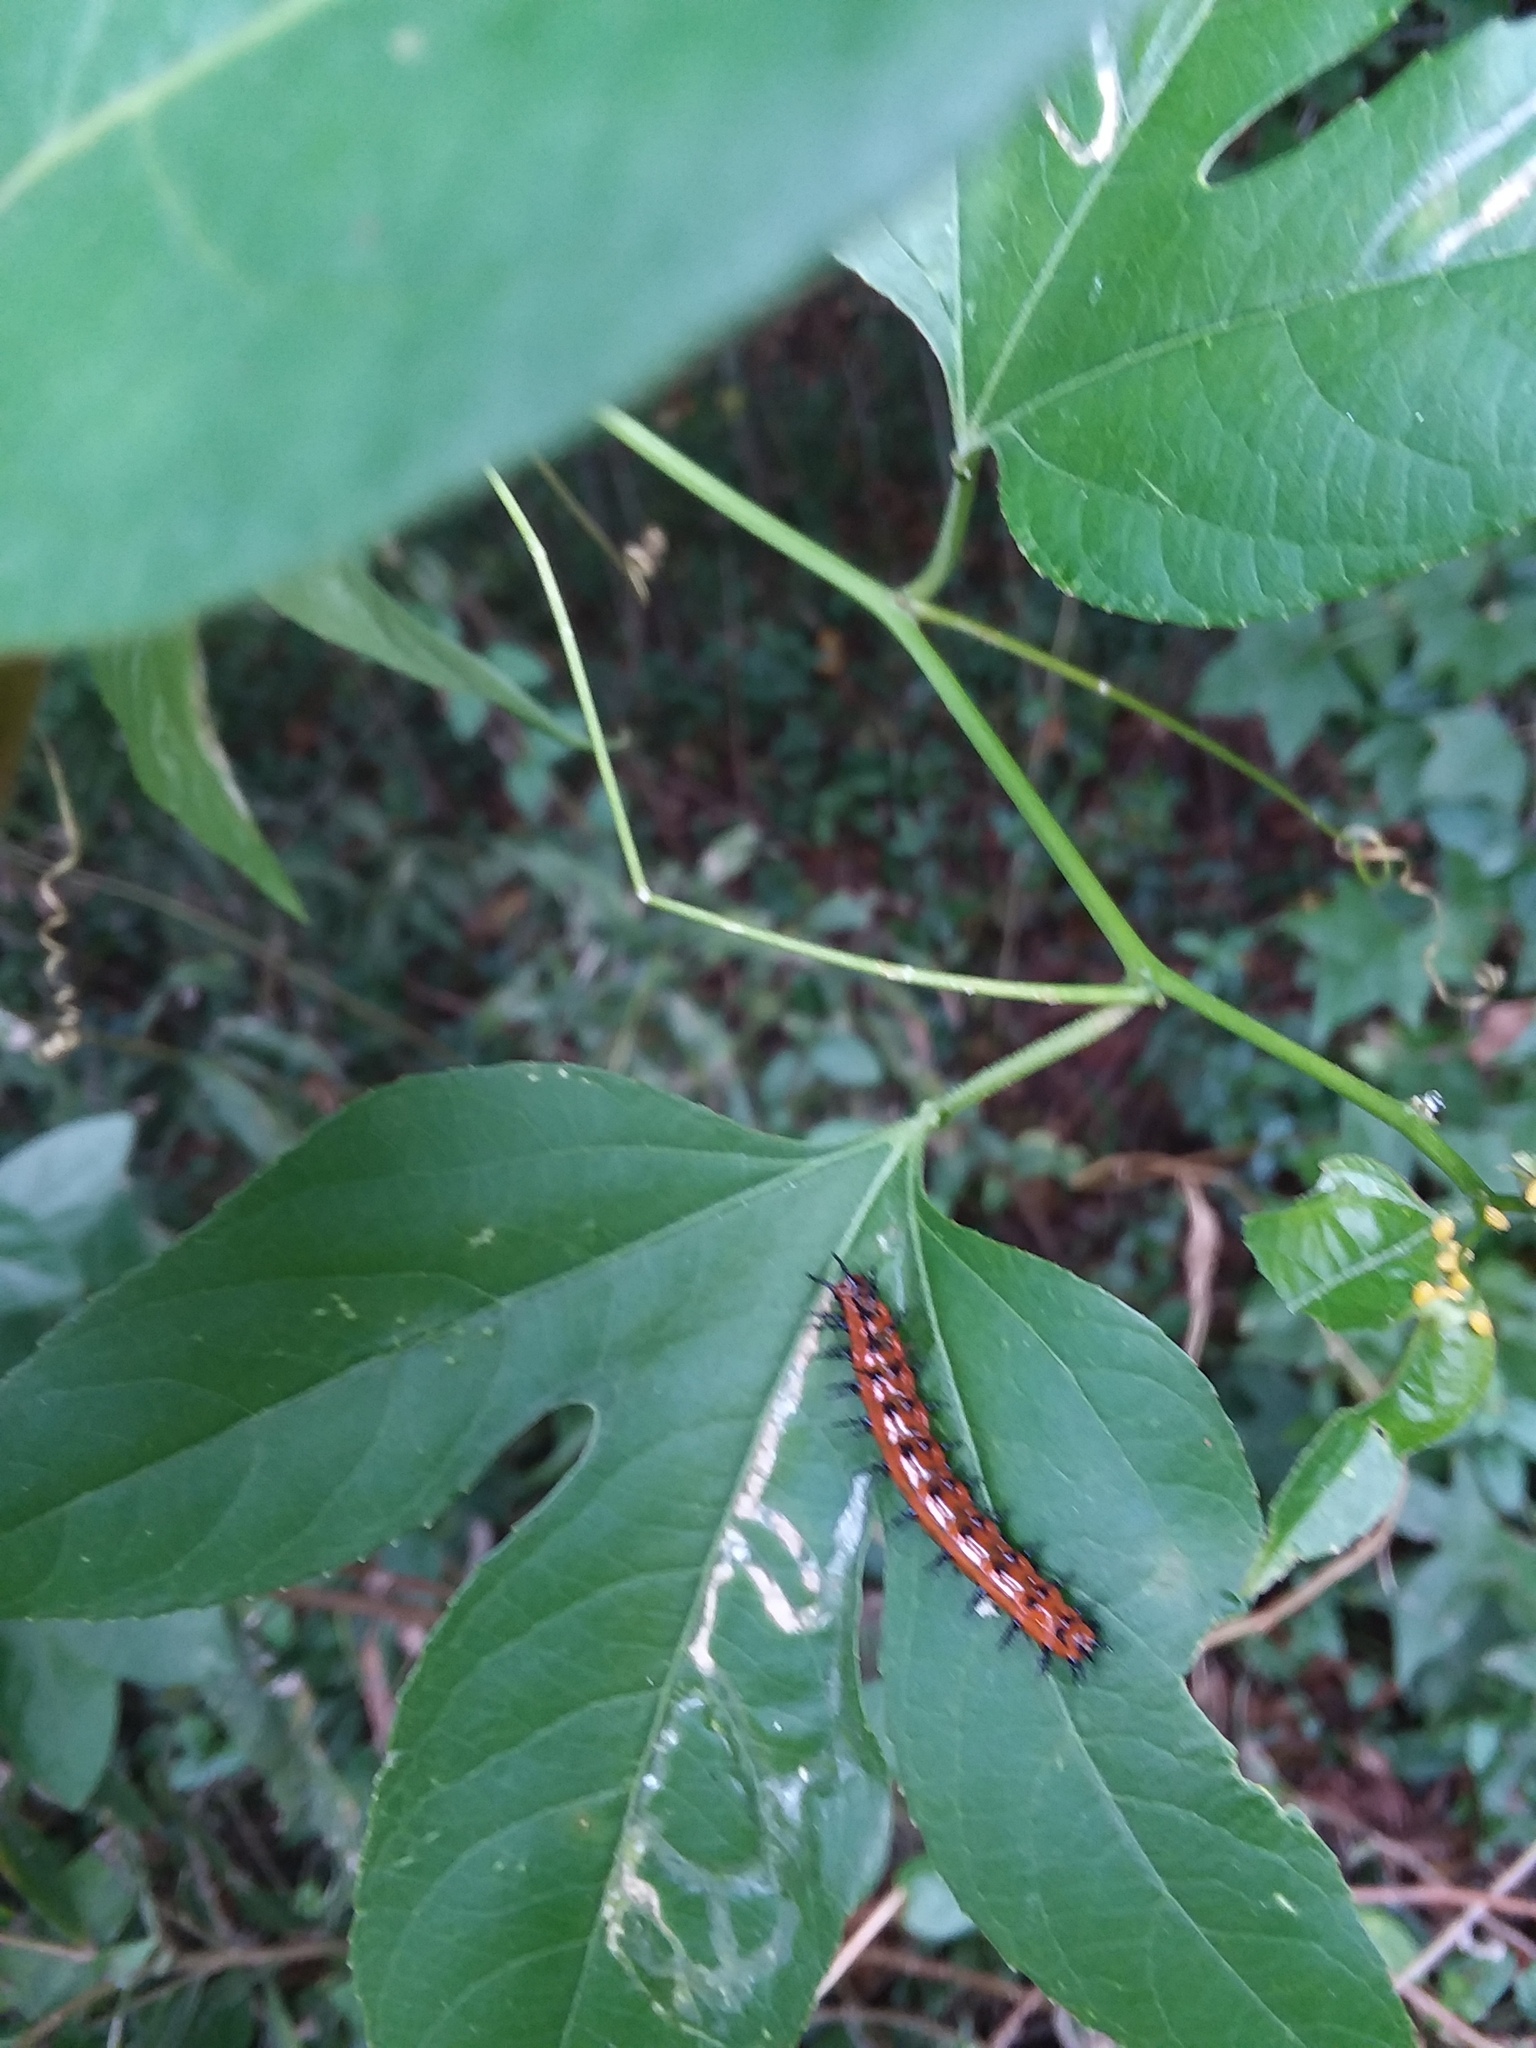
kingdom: Animalia
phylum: Arthropoda
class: Insecta
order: Lepidoptera
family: Nymphalidae
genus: Dione
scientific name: Dione vanillae
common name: Gulf fritillary
